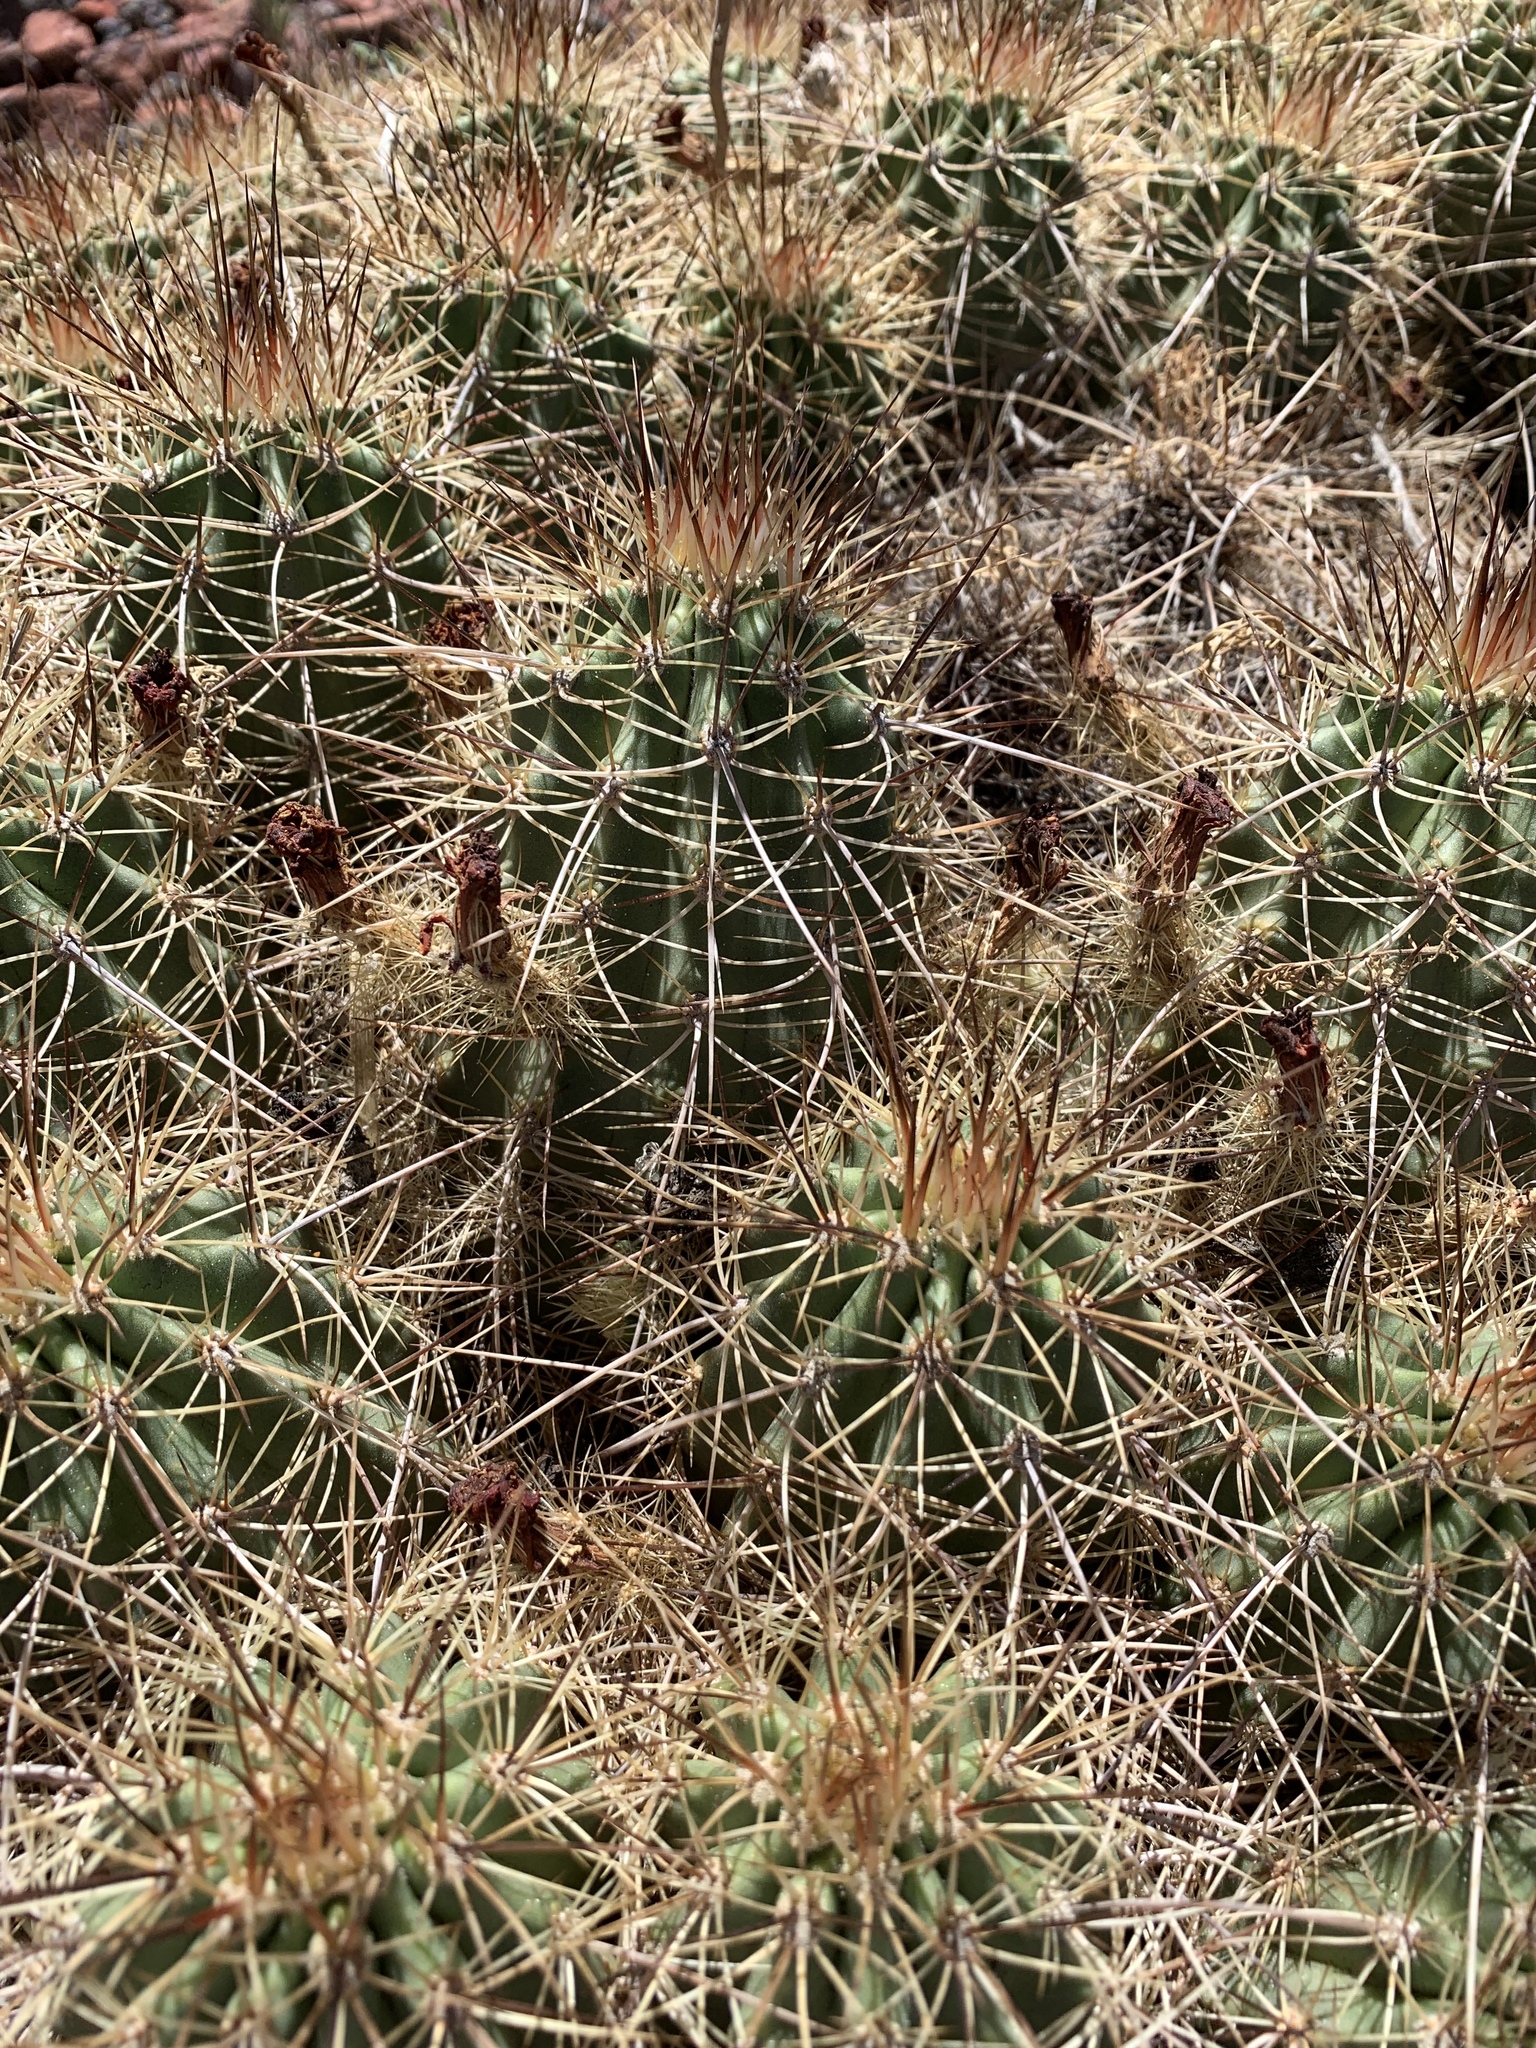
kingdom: Plantae
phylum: Tracheophyta
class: Magnoliopsida
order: Caryophyllales
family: Cactaceae
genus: Echinocereus
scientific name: Echinocereus coccineus
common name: Scarlet hedgehog cactus
